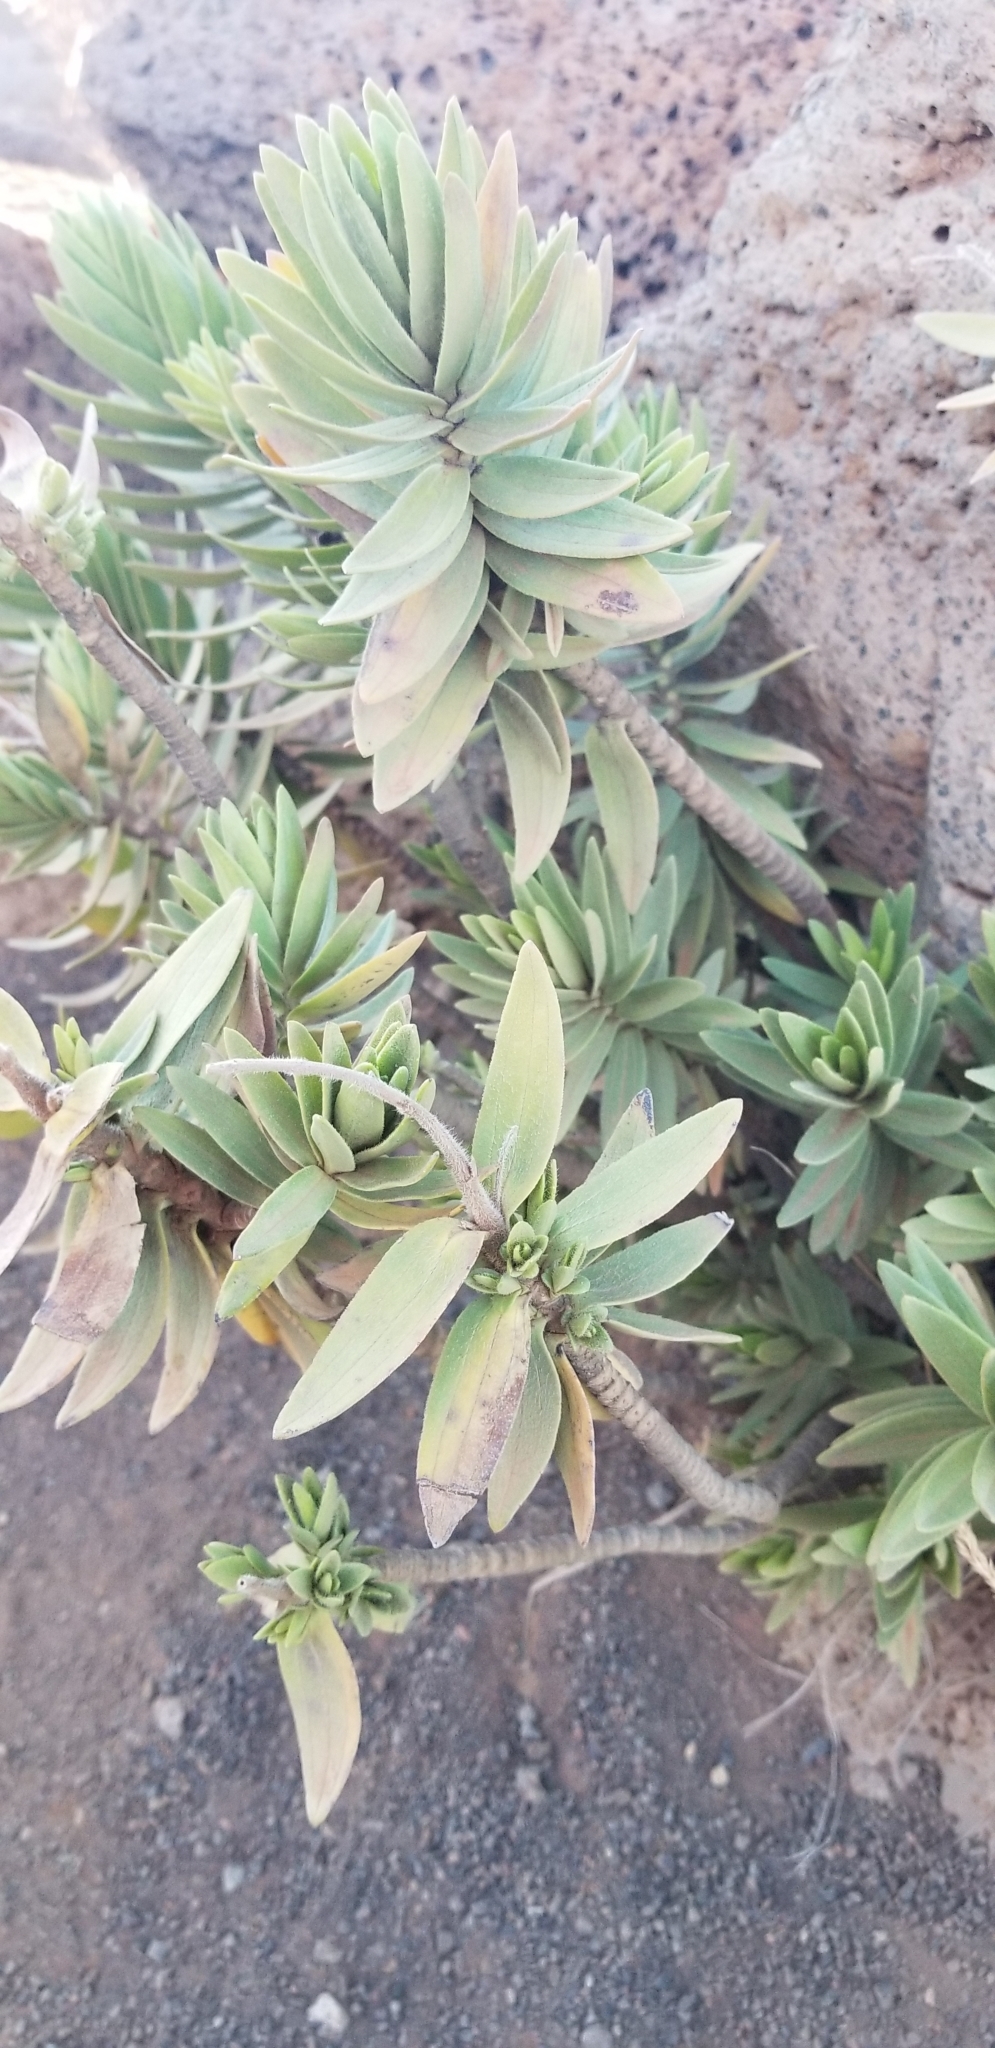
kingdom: Plantae
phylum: Tracheophyta
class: Magnoliopsida
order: Asterales
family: Asteraceae
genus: Dubautia
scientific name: Dubautia menziesii
